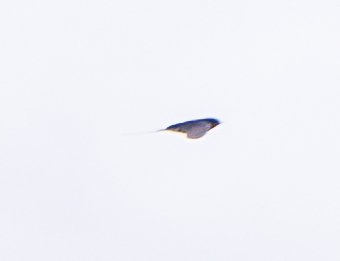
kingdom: Animalia
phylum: Chordata
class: Aves
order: Passeriformes
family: Hirundinidae
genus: Hirundo
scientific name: Hirundo rustica
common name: Barn swallow
